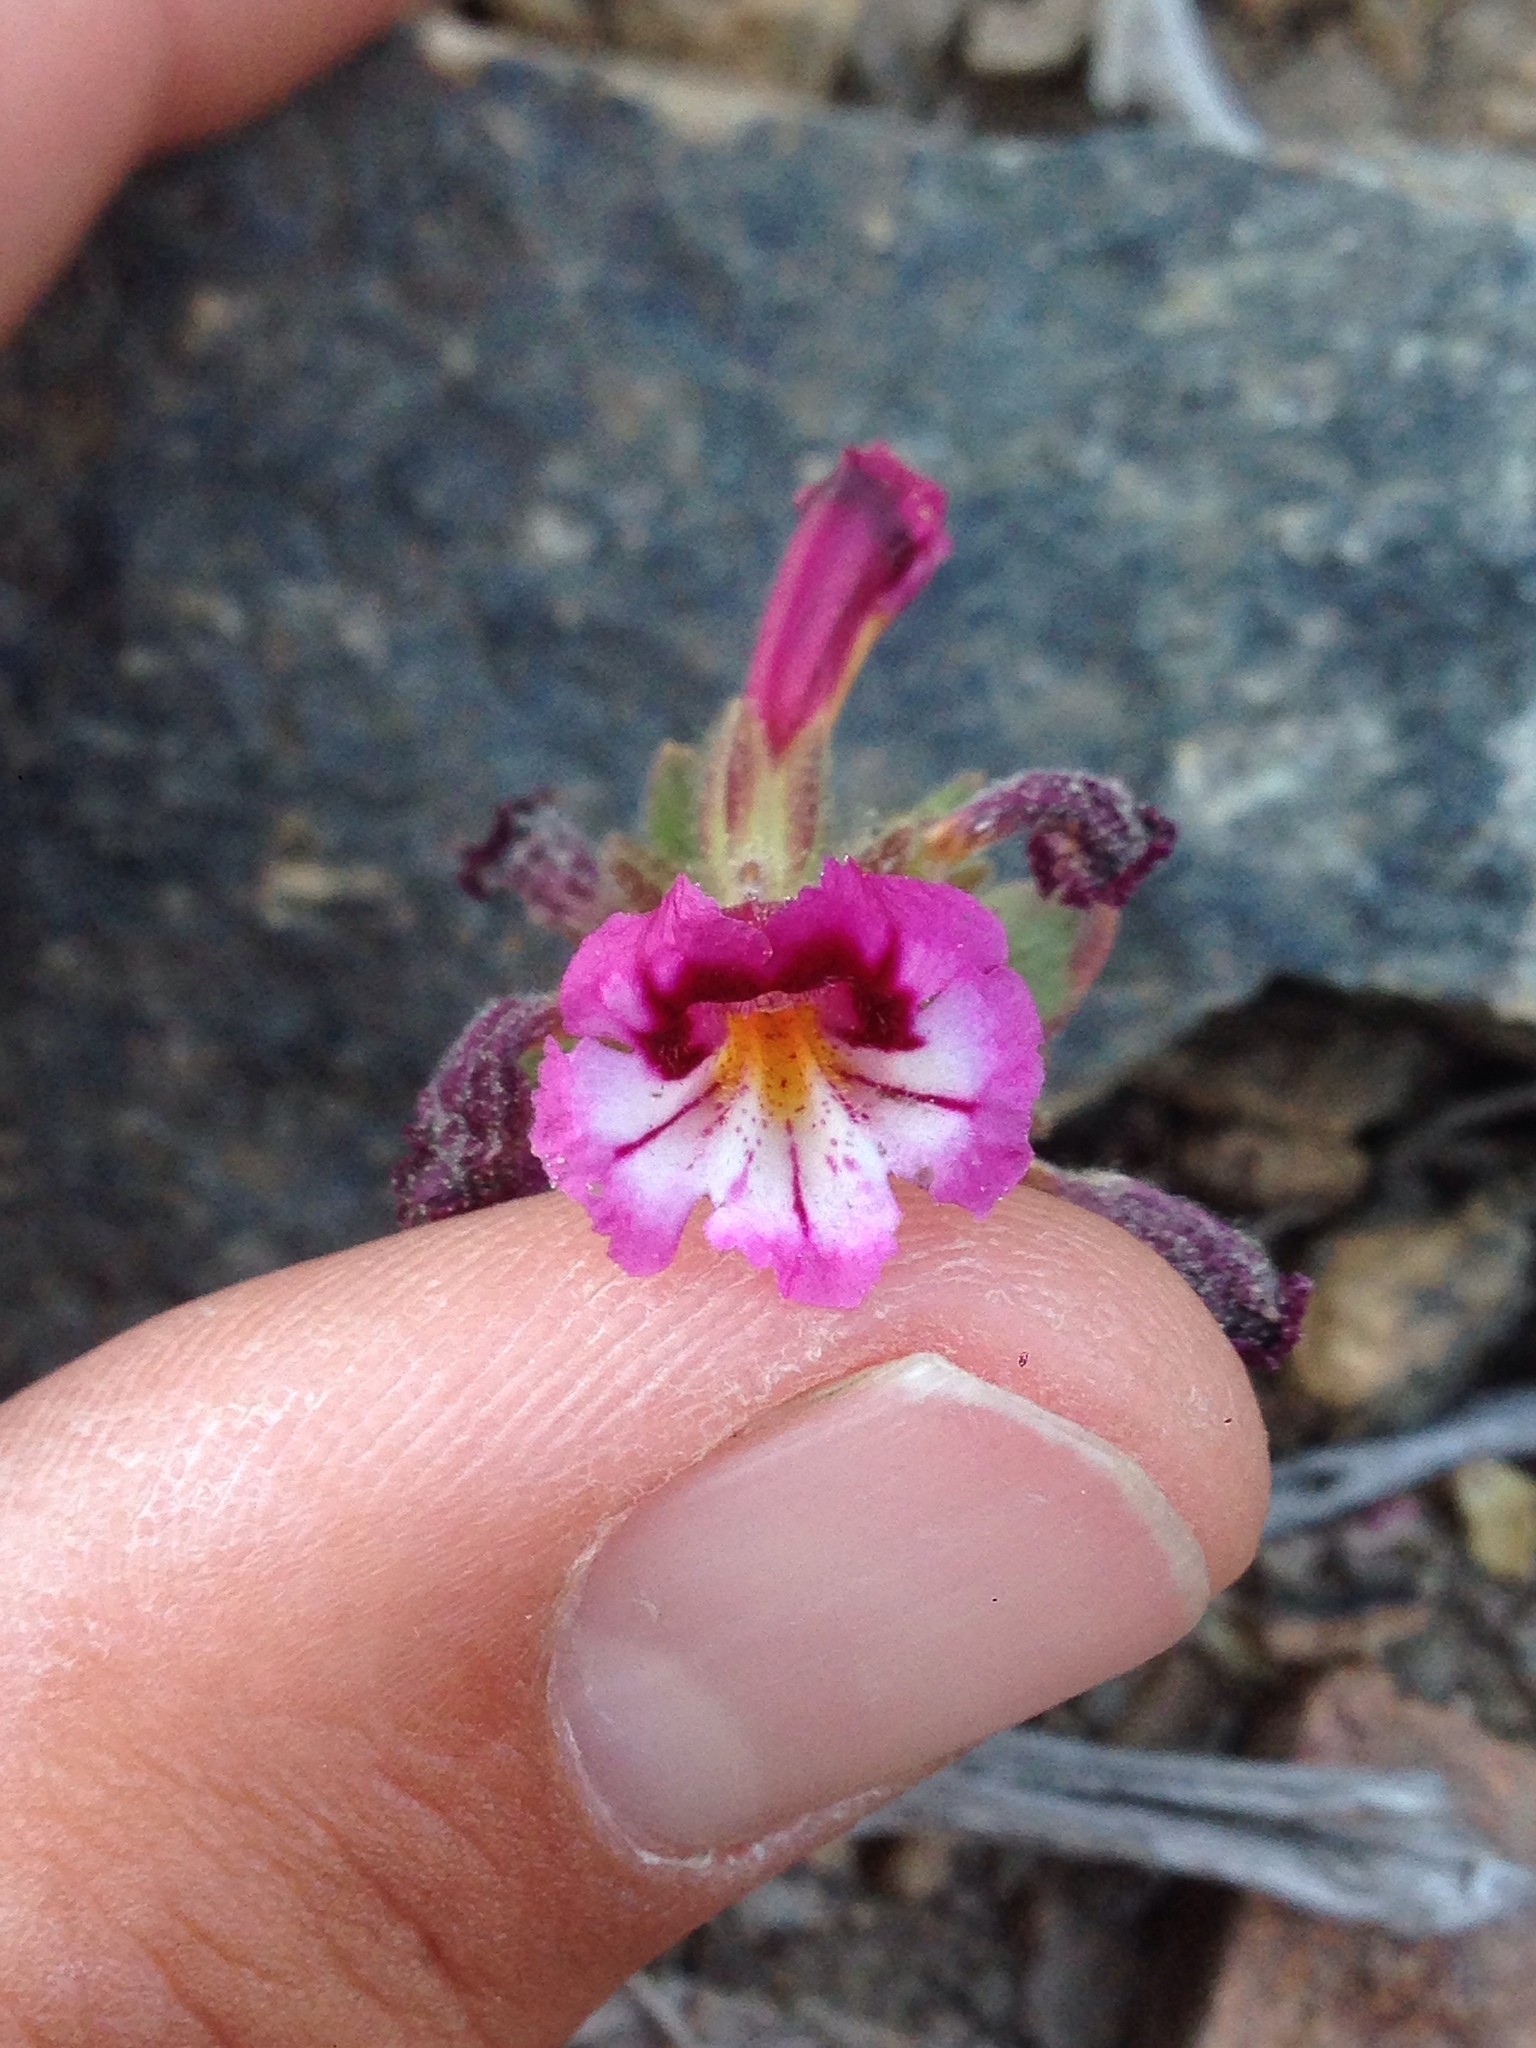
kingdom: Plantae
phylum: Tracheophyta
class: Magnoliopsida
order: Lamiales
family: Phrymaceae
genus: Diplacus
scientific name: Diplacus constrictus
